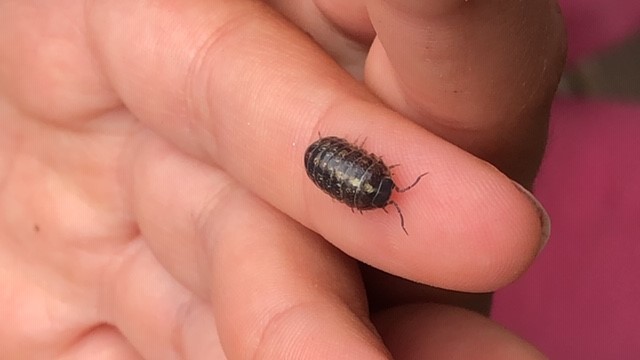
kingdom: Animalia
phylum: Arthropoda
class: Malacostraca
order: Isopoda
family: Armadillidiidae
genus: Armadillidium
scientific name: Armadillidium vulgare
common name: Common pill woodlouse
